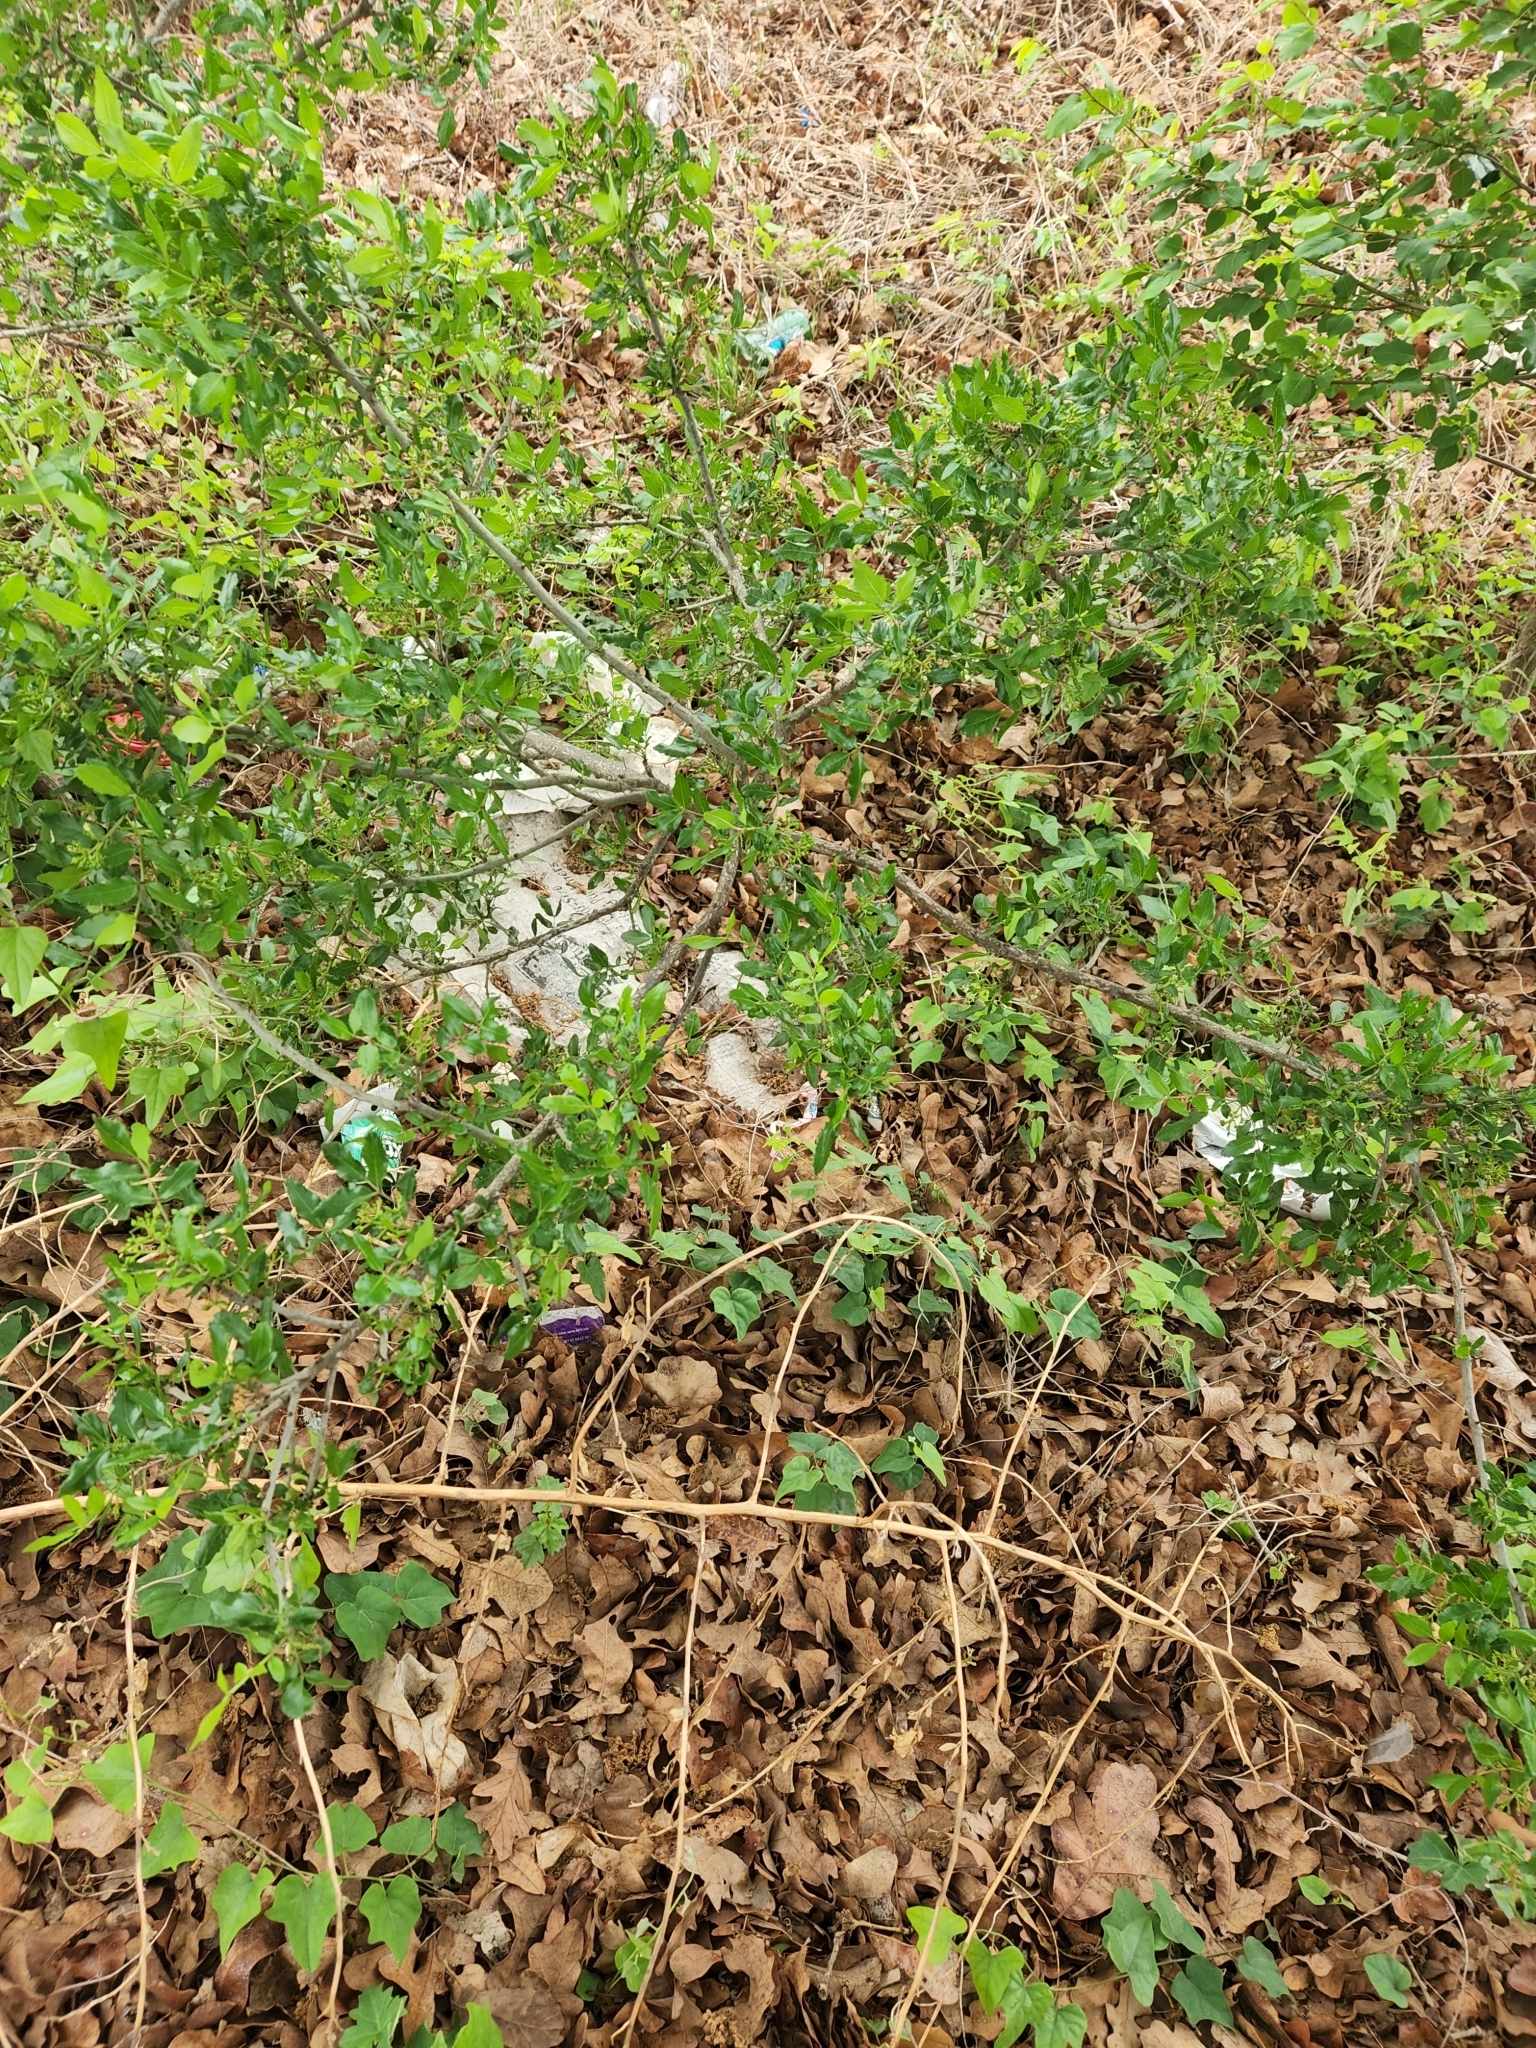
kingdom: Plantae
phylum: Tracheophyta
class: Magnoliopsida
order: Sapindales
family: Rutaceae
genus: Zanthoxylum
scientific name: Zanthoxylum clava-herculis
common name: Hercules'-club
